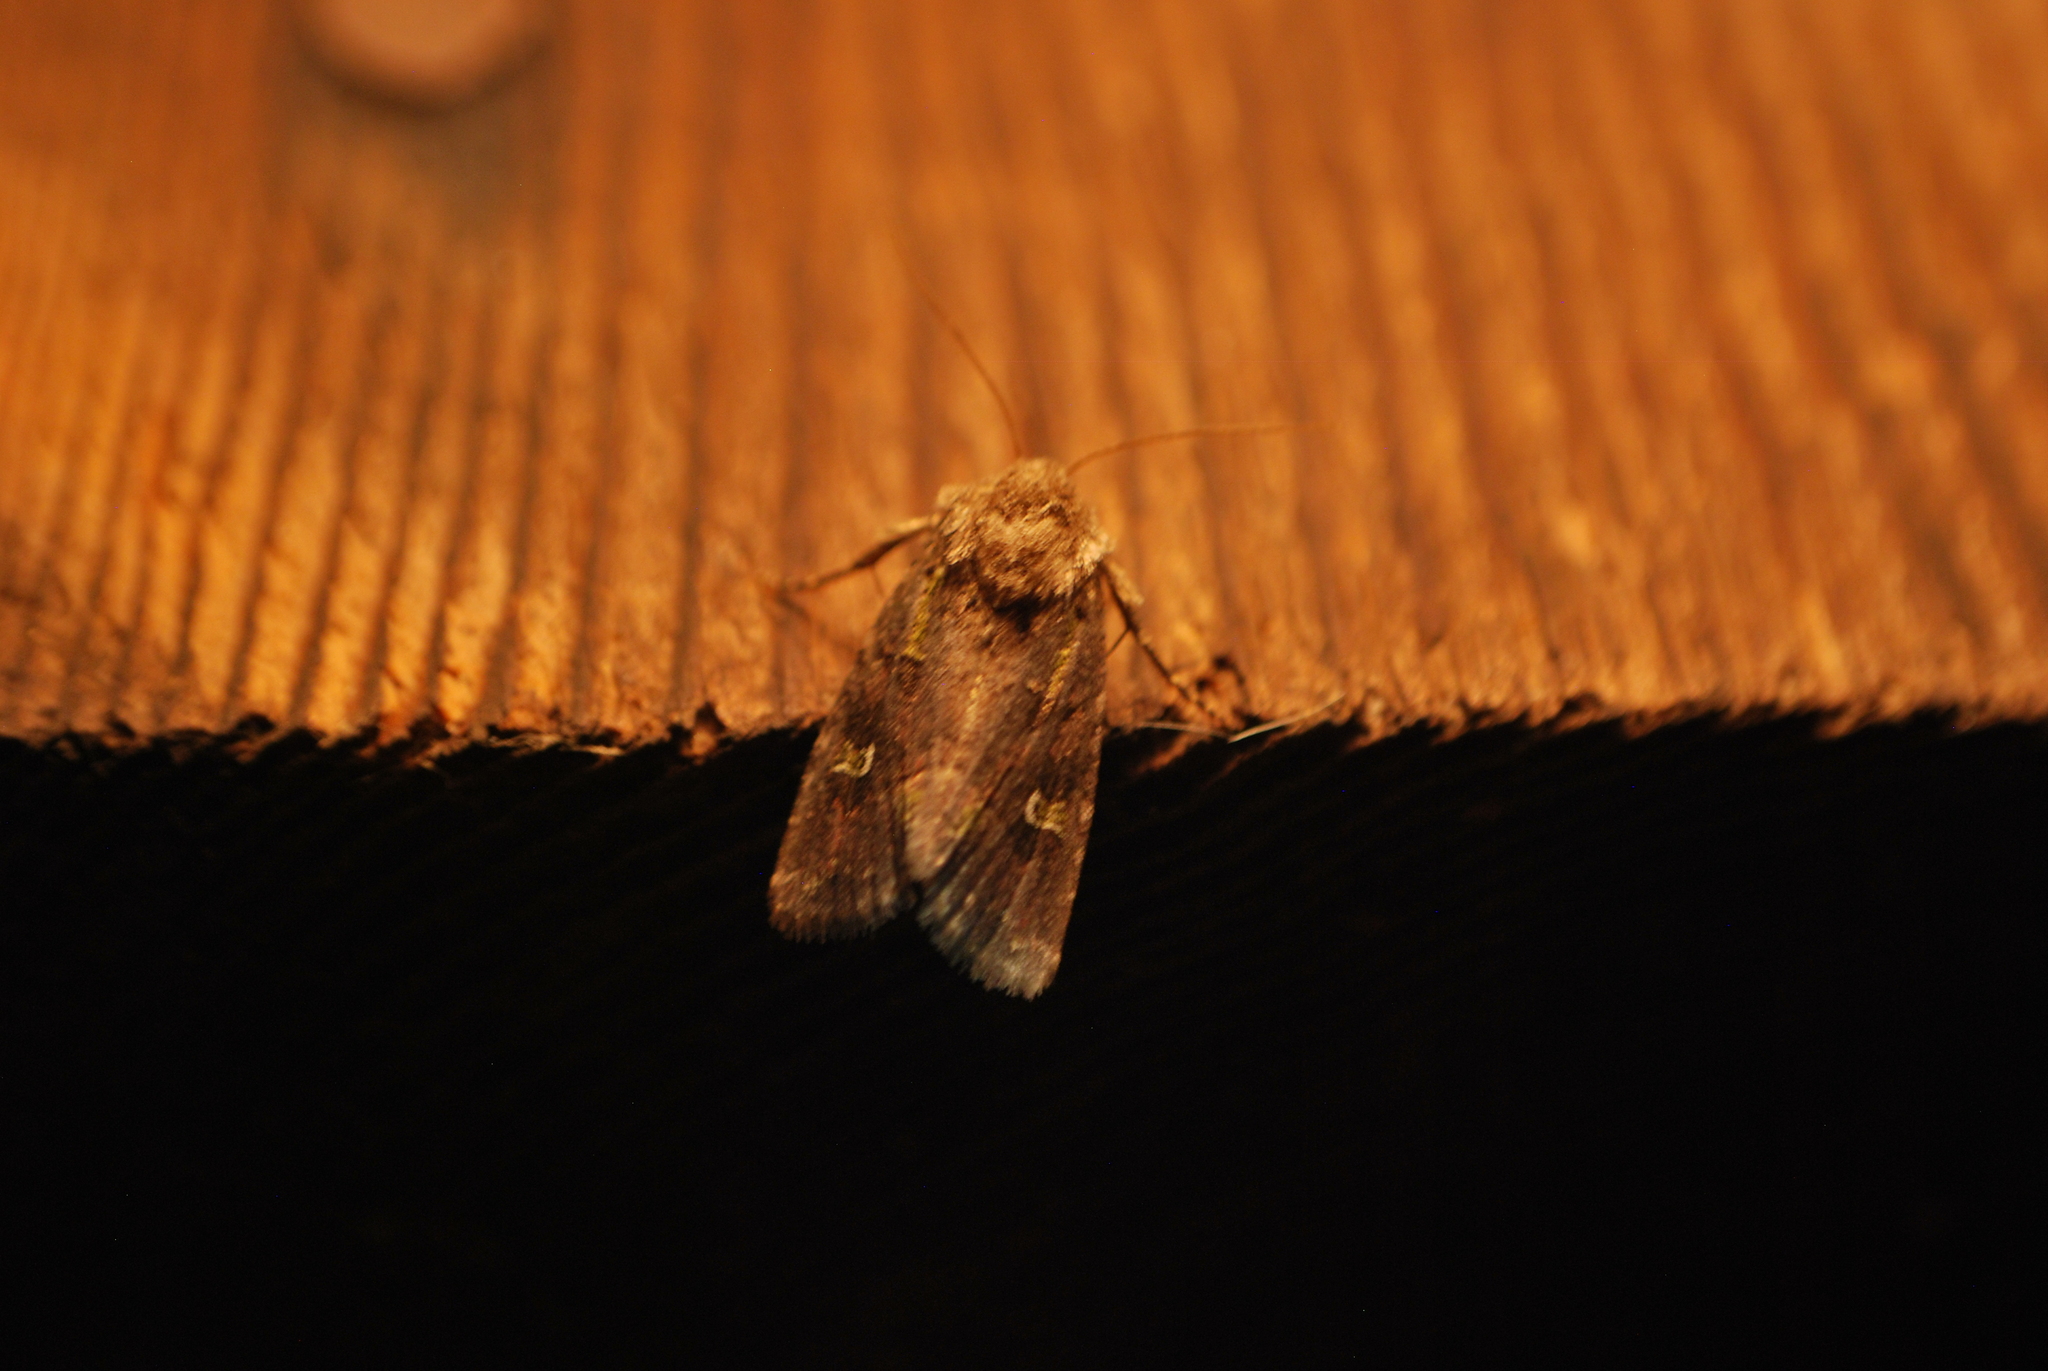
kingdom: Animalia
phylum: Arthropoda
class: Insecta
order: Lepidoptera
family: Noctuidae
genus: Lacinipolia
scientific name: Lacinipolia renigera
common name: Kidney-spotted minor
